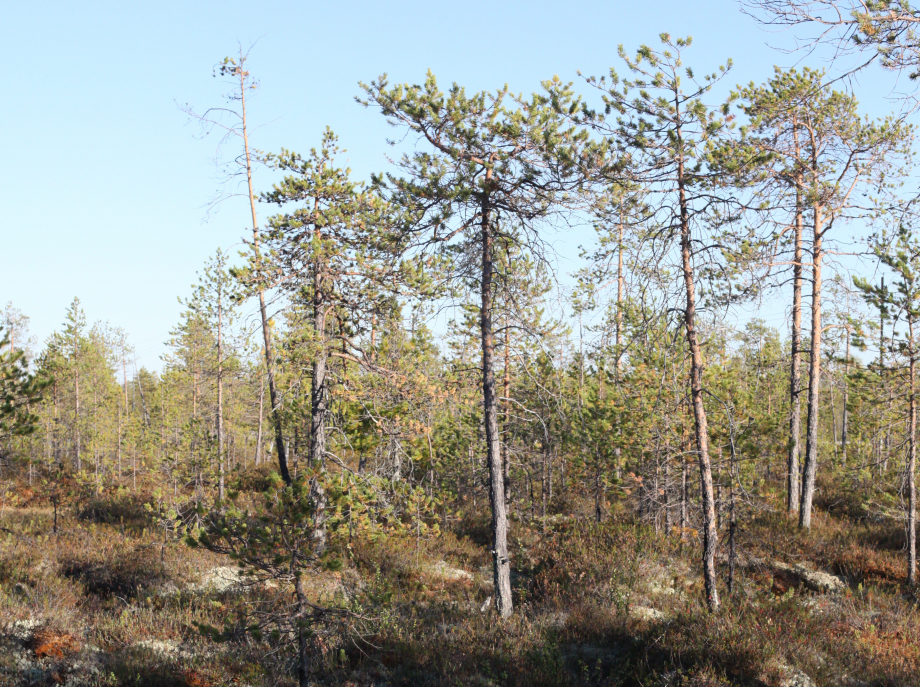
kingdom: Plantae
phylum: Tracheophyta
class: Pinopsida
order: Pinales
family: Pinaceae
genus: Pinus
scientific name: Pinus sylvestris
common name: Scots pine
